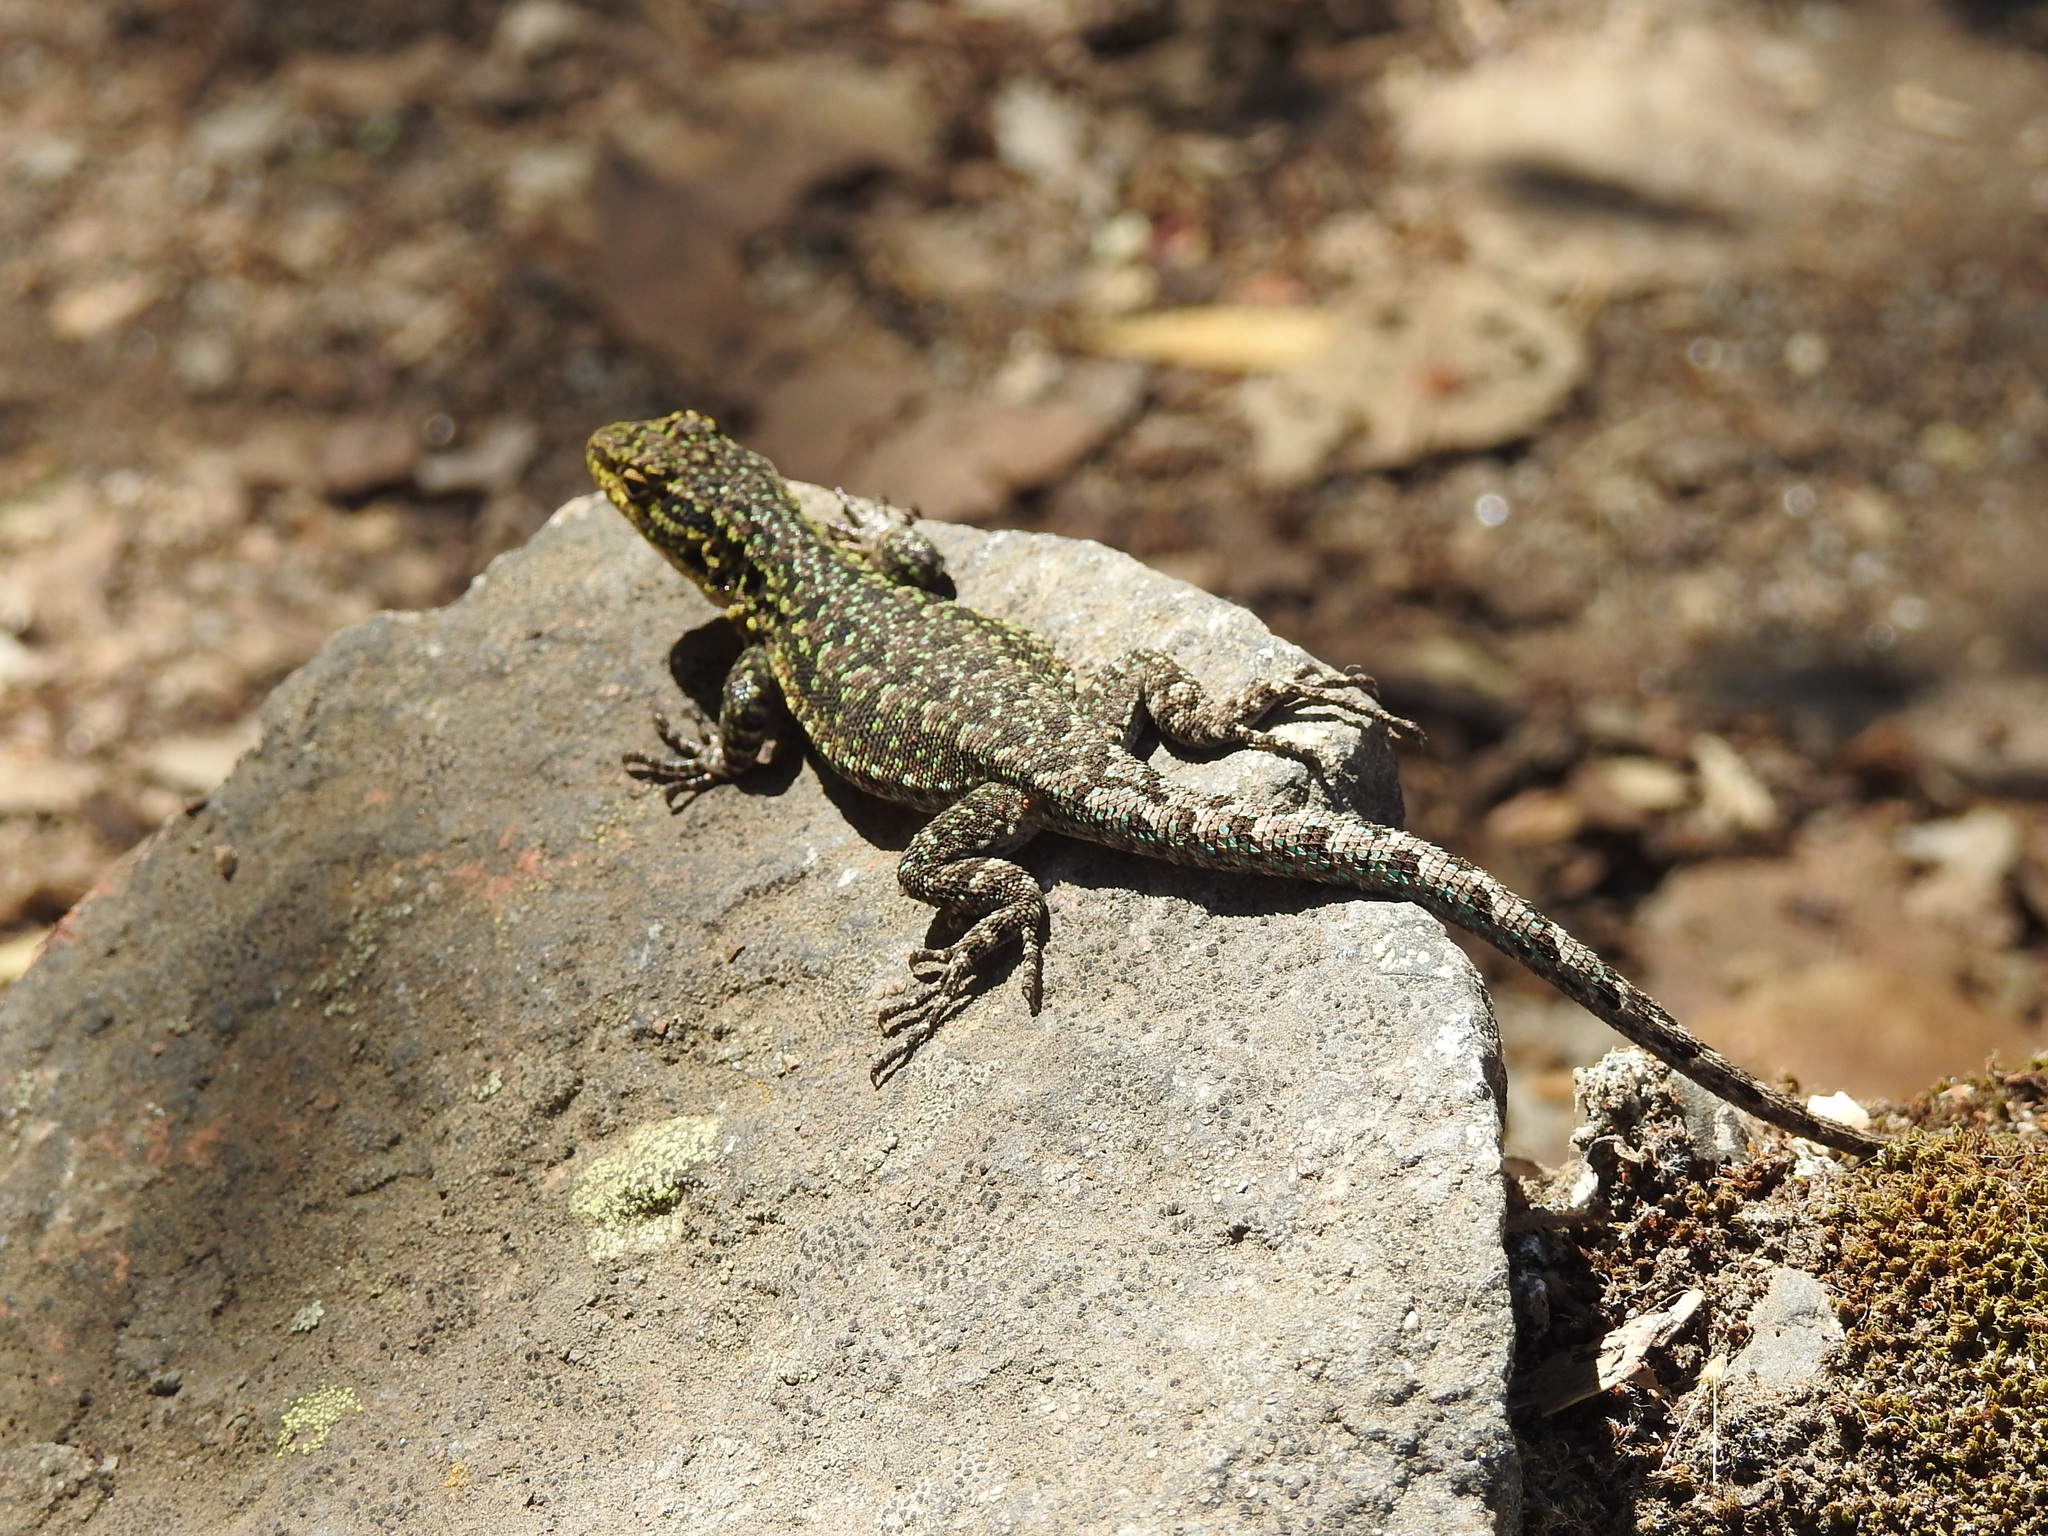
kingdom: Animalia
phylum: Chordata
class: Squamata
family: Liolaemidae
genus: Liolaemus
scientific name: Liolaemus tenuis
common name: Thin tree iguana
